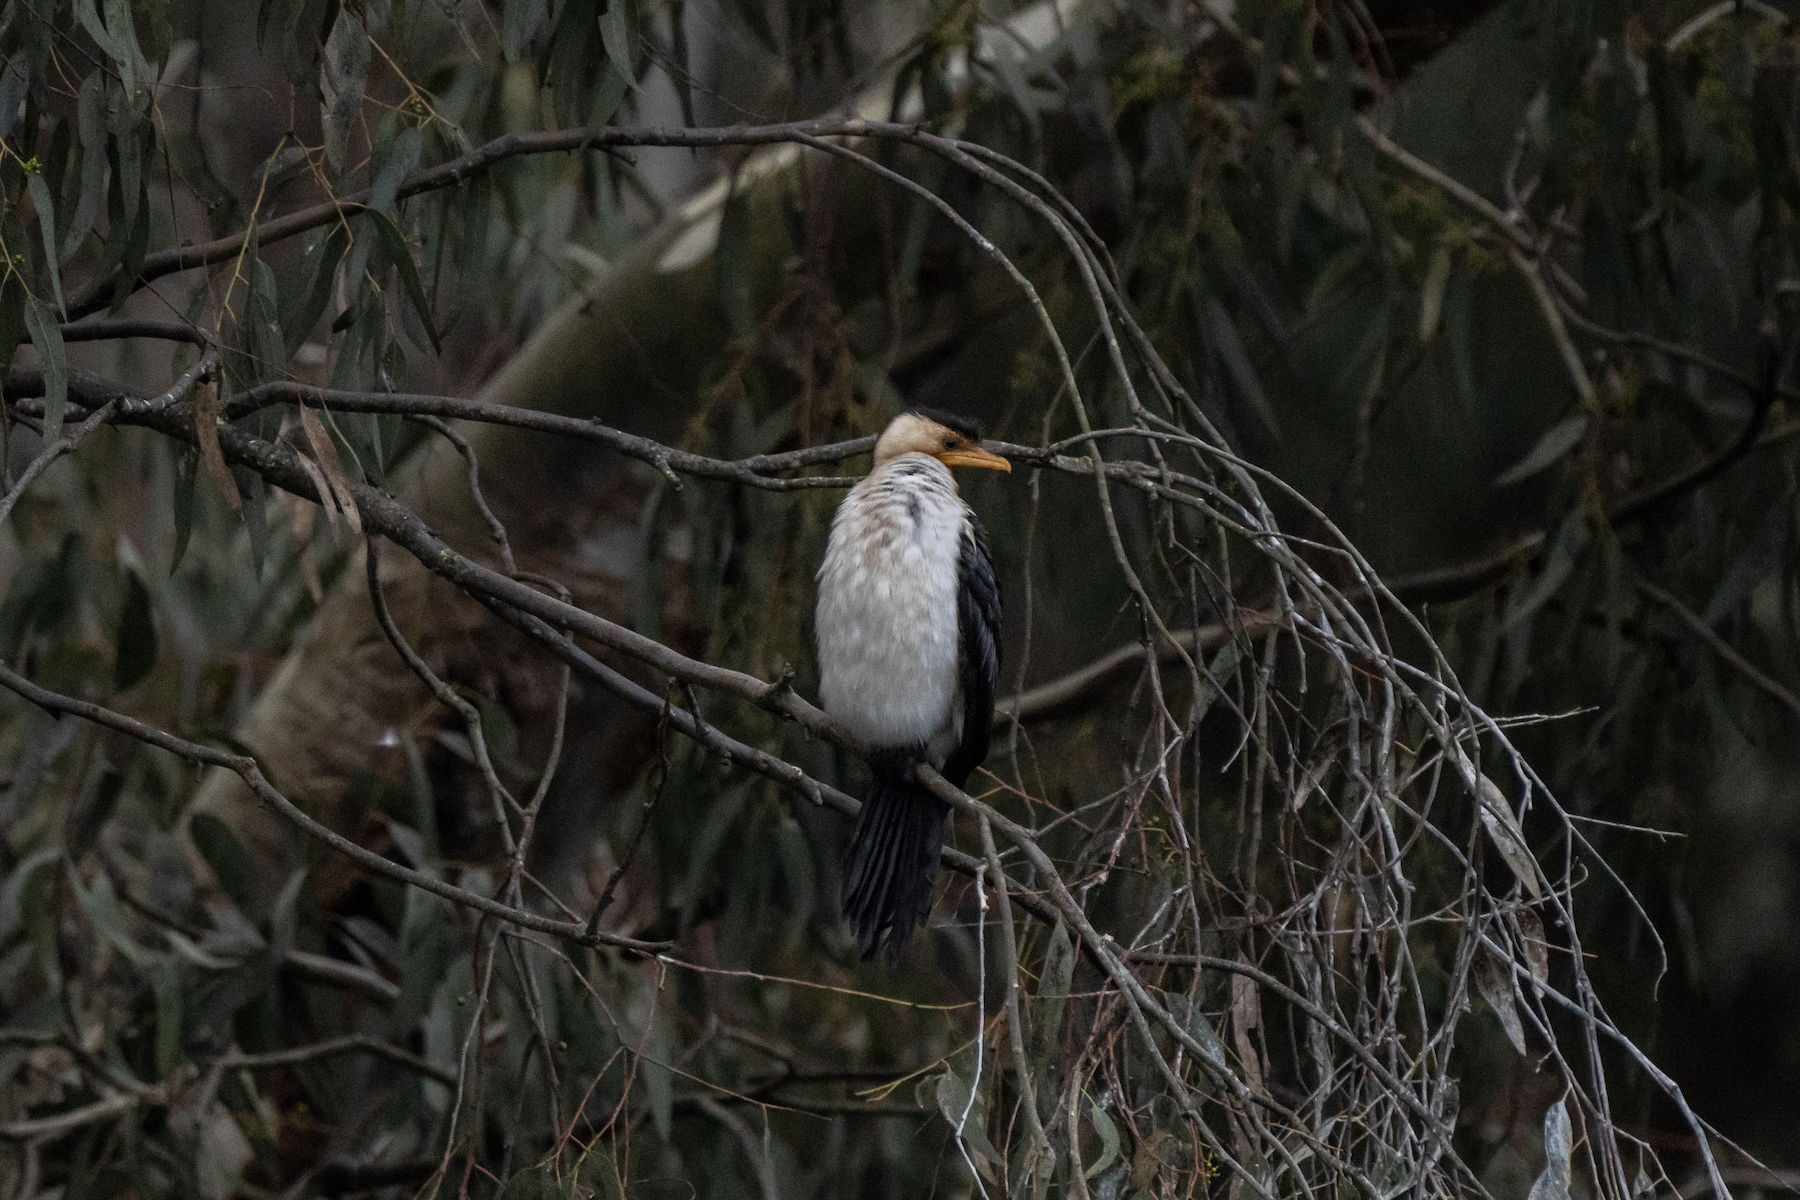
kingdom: Animalia
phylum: Chordata
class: Aves
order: Suliformes
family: Phalacrocoracidae
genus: Microcarbo
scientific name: Microcarbo melanoleucos
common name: Little pied cormorant
